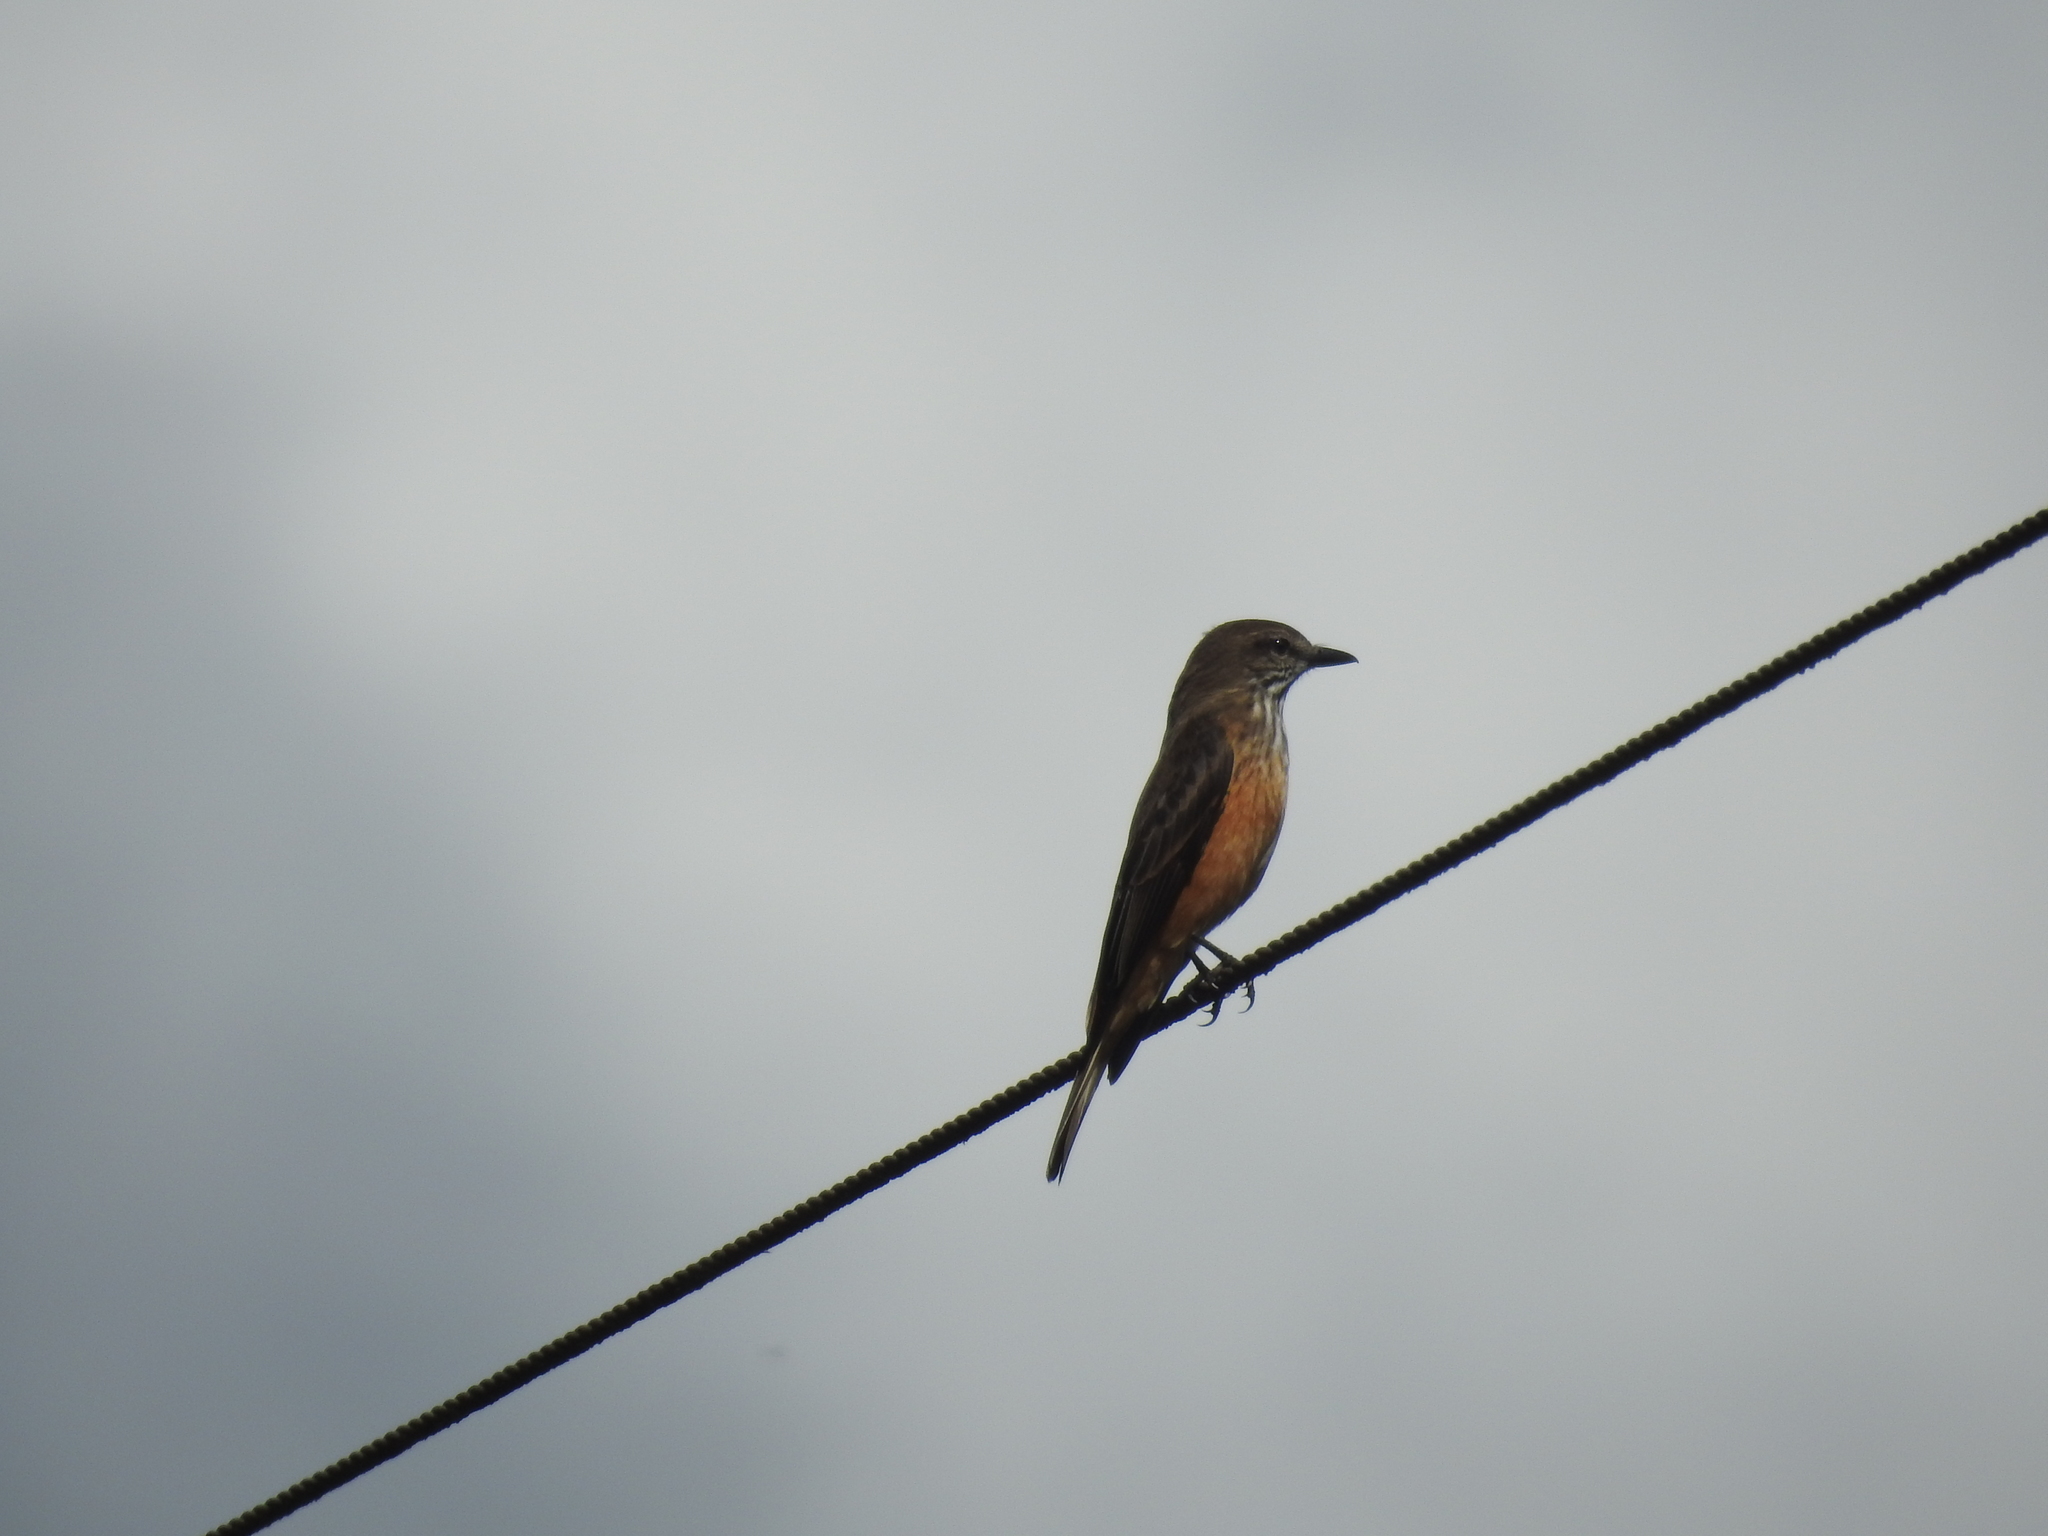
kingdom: Animalia
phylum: Chordata
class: Aves
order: Passeriformes
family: Tyrannidae
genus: Myiotheretes
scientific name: Myiotheretes striaticollis
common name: Streak-throated bush tyrant
